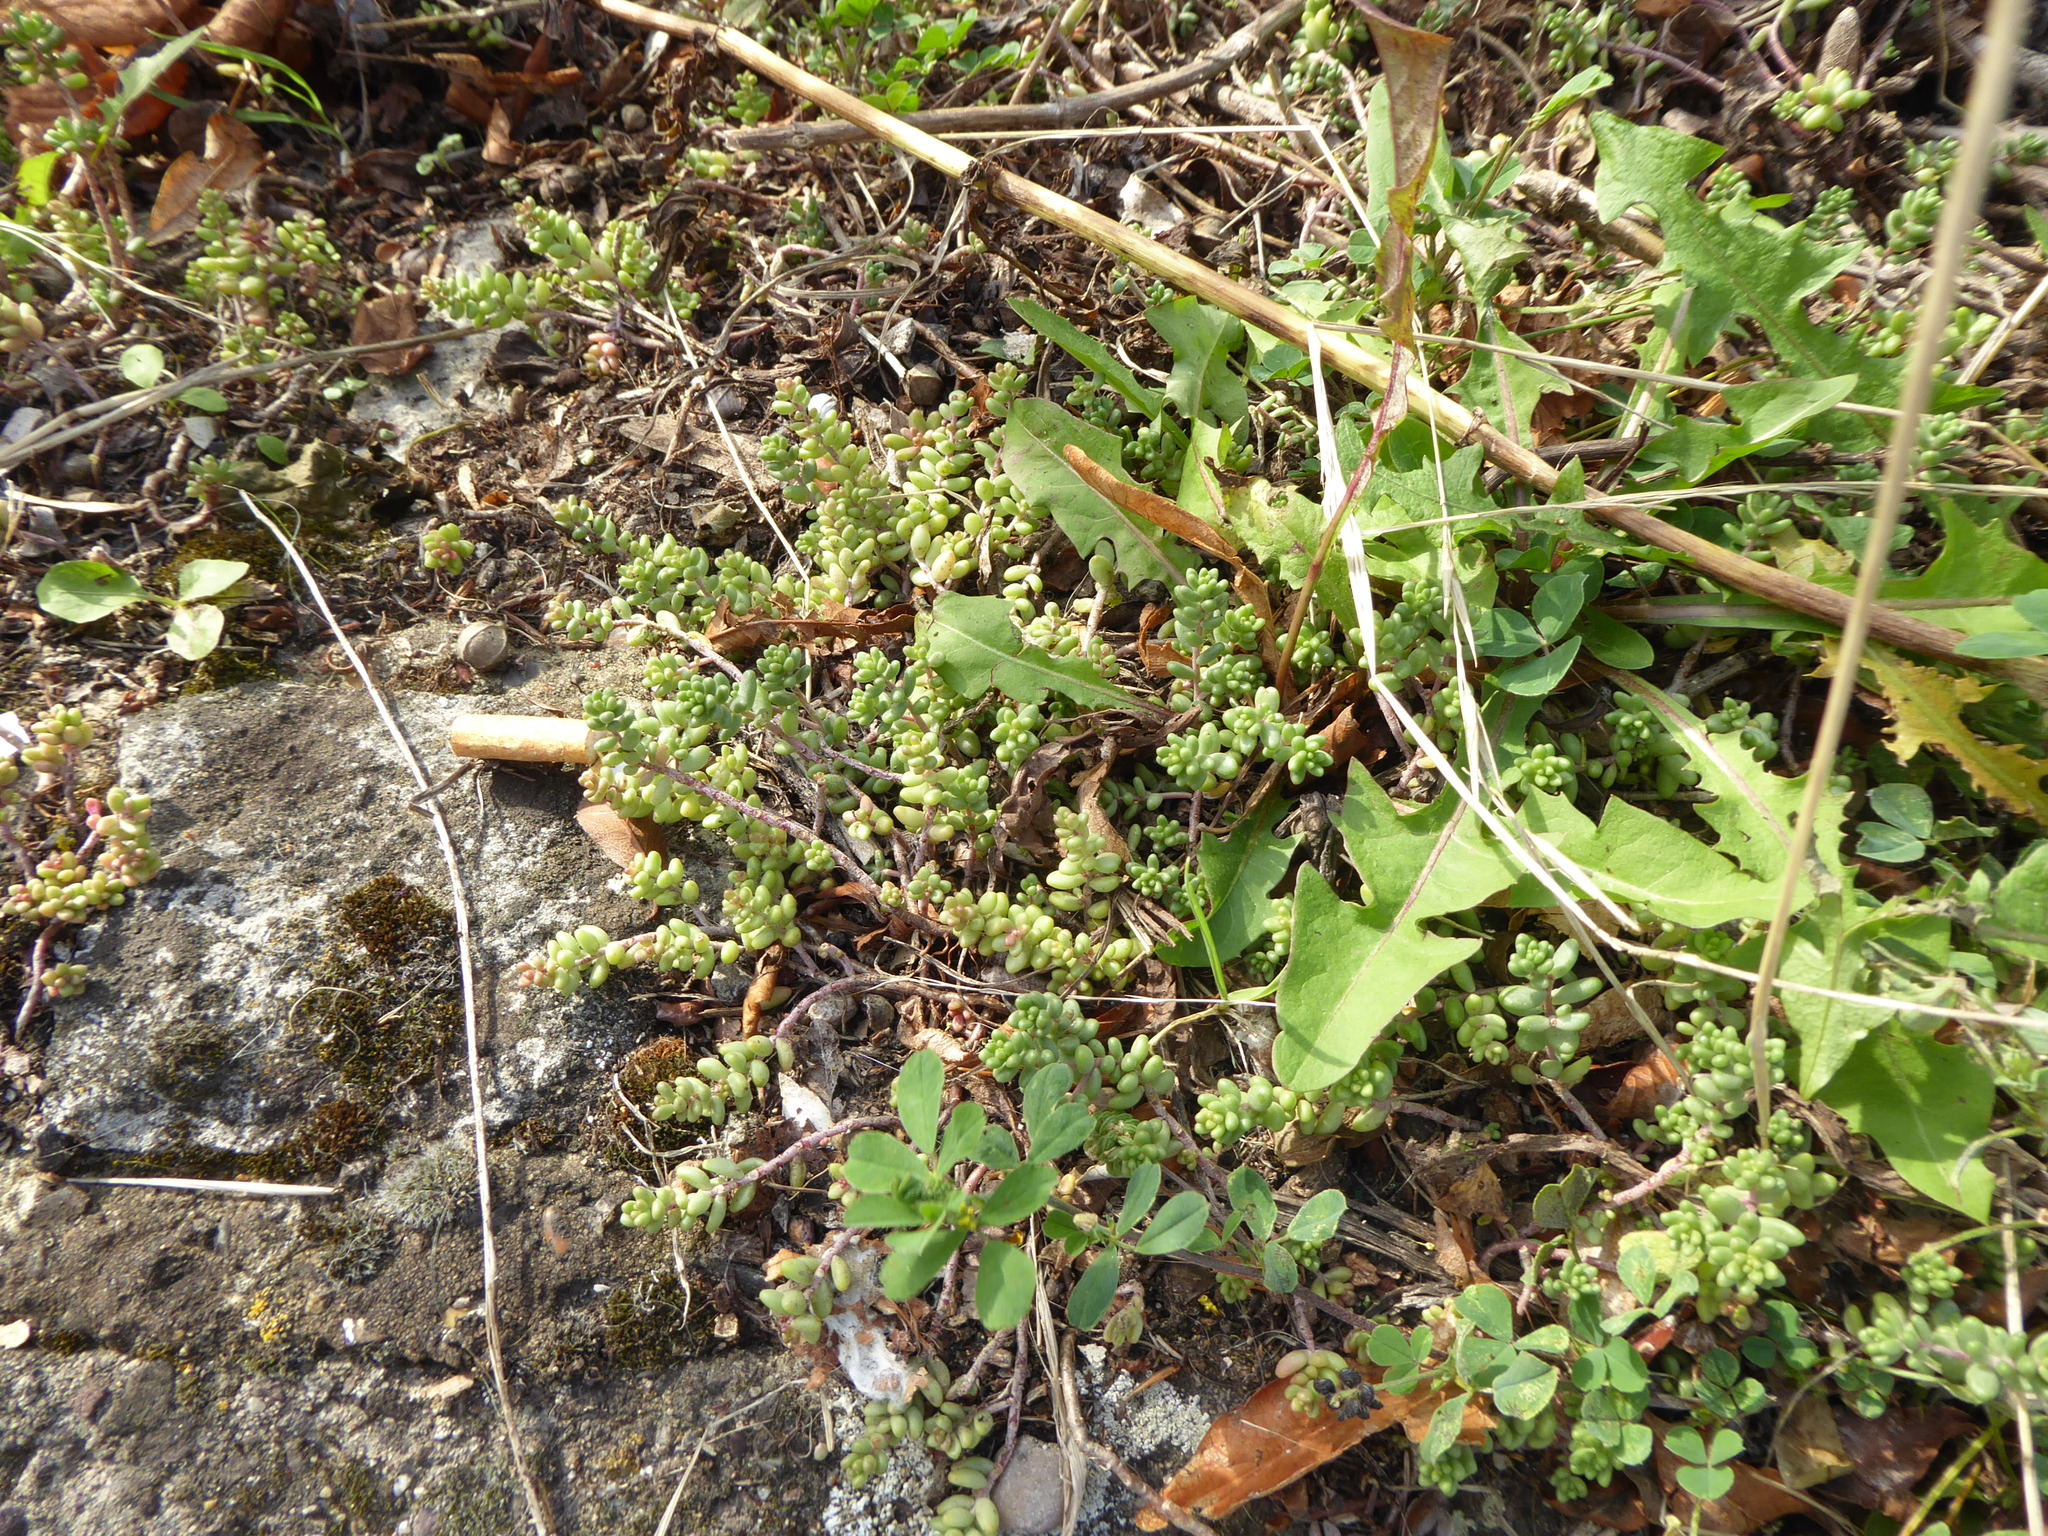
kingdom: Plantae
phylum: Tracheophyta
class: Magnoliopsida
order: Saxifragales
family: Crassulaceae
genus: Sedum
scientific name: Sedum album
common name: White stonecrop
